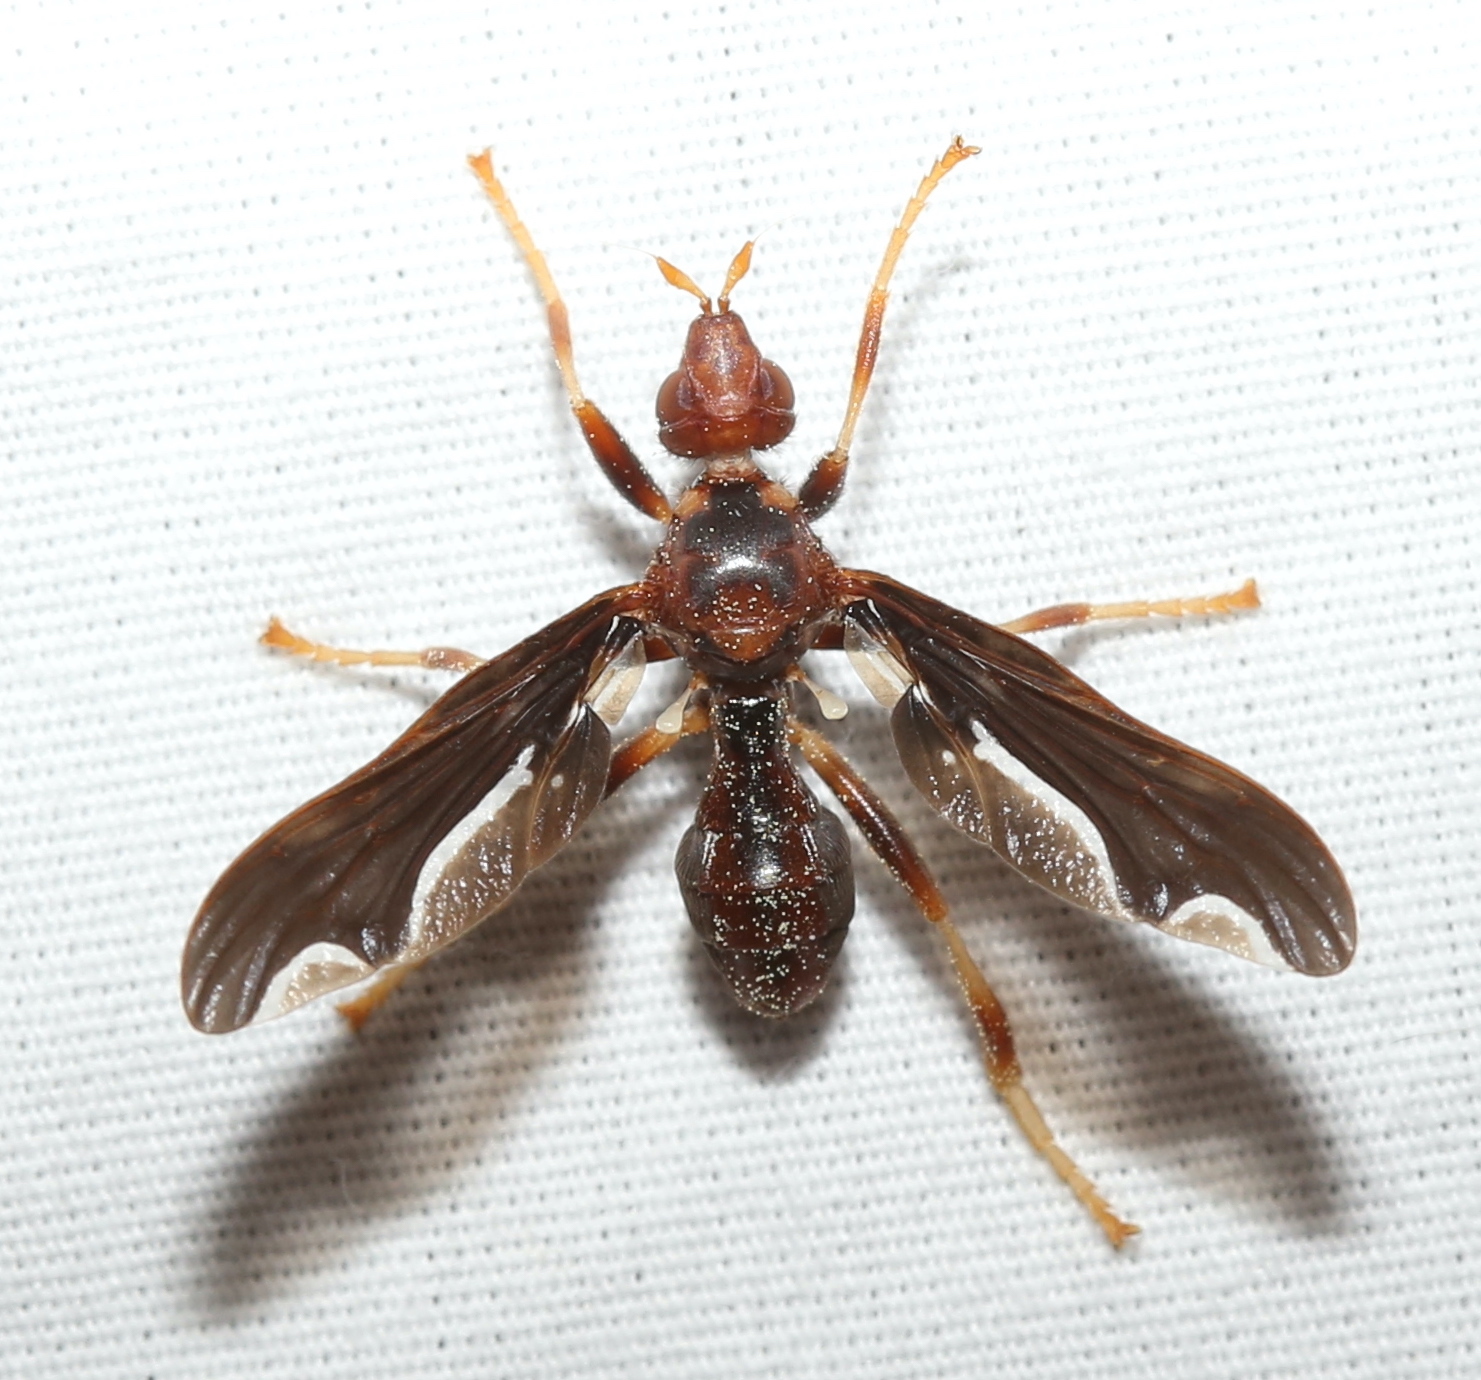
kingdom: Animalia
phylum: Arthropoda
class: Insecta
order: Diptera
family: Pyrgotidae
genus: Pyrgota
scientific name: Pyrgota undata
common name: Waved light fly
